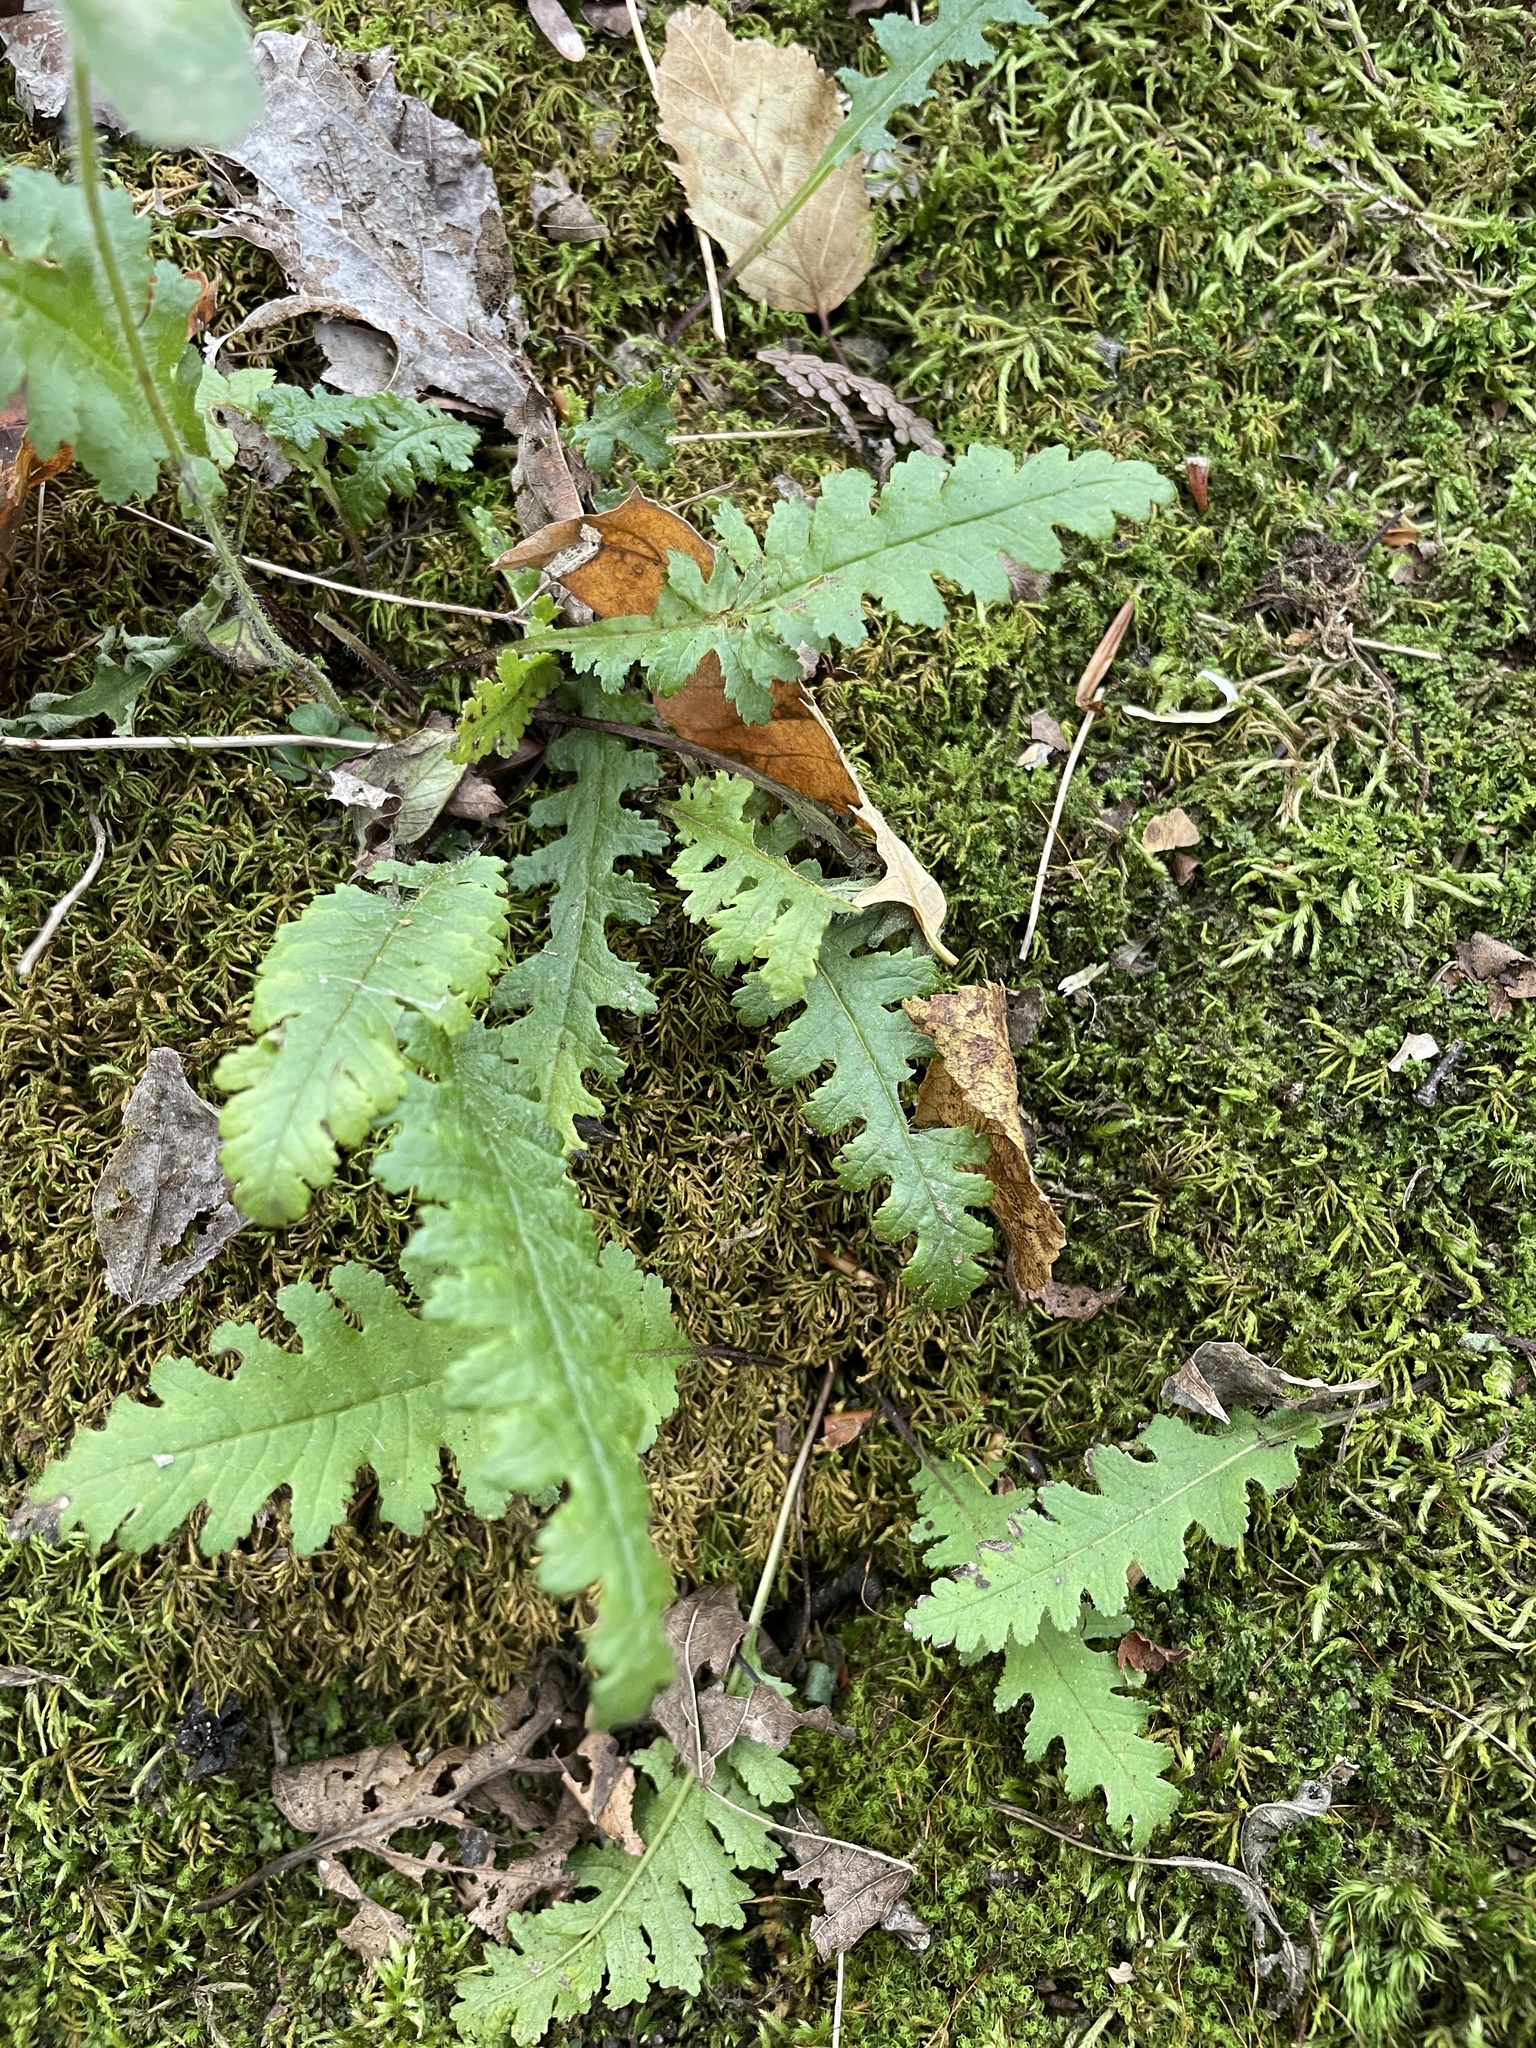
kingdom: Plantae
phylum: Tracheophyta
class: Magnoliopsida
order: Lamiales
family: Orobanchaceae
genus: Pedicularis
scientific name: Pedicularis canadensis
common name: Early lousewort
